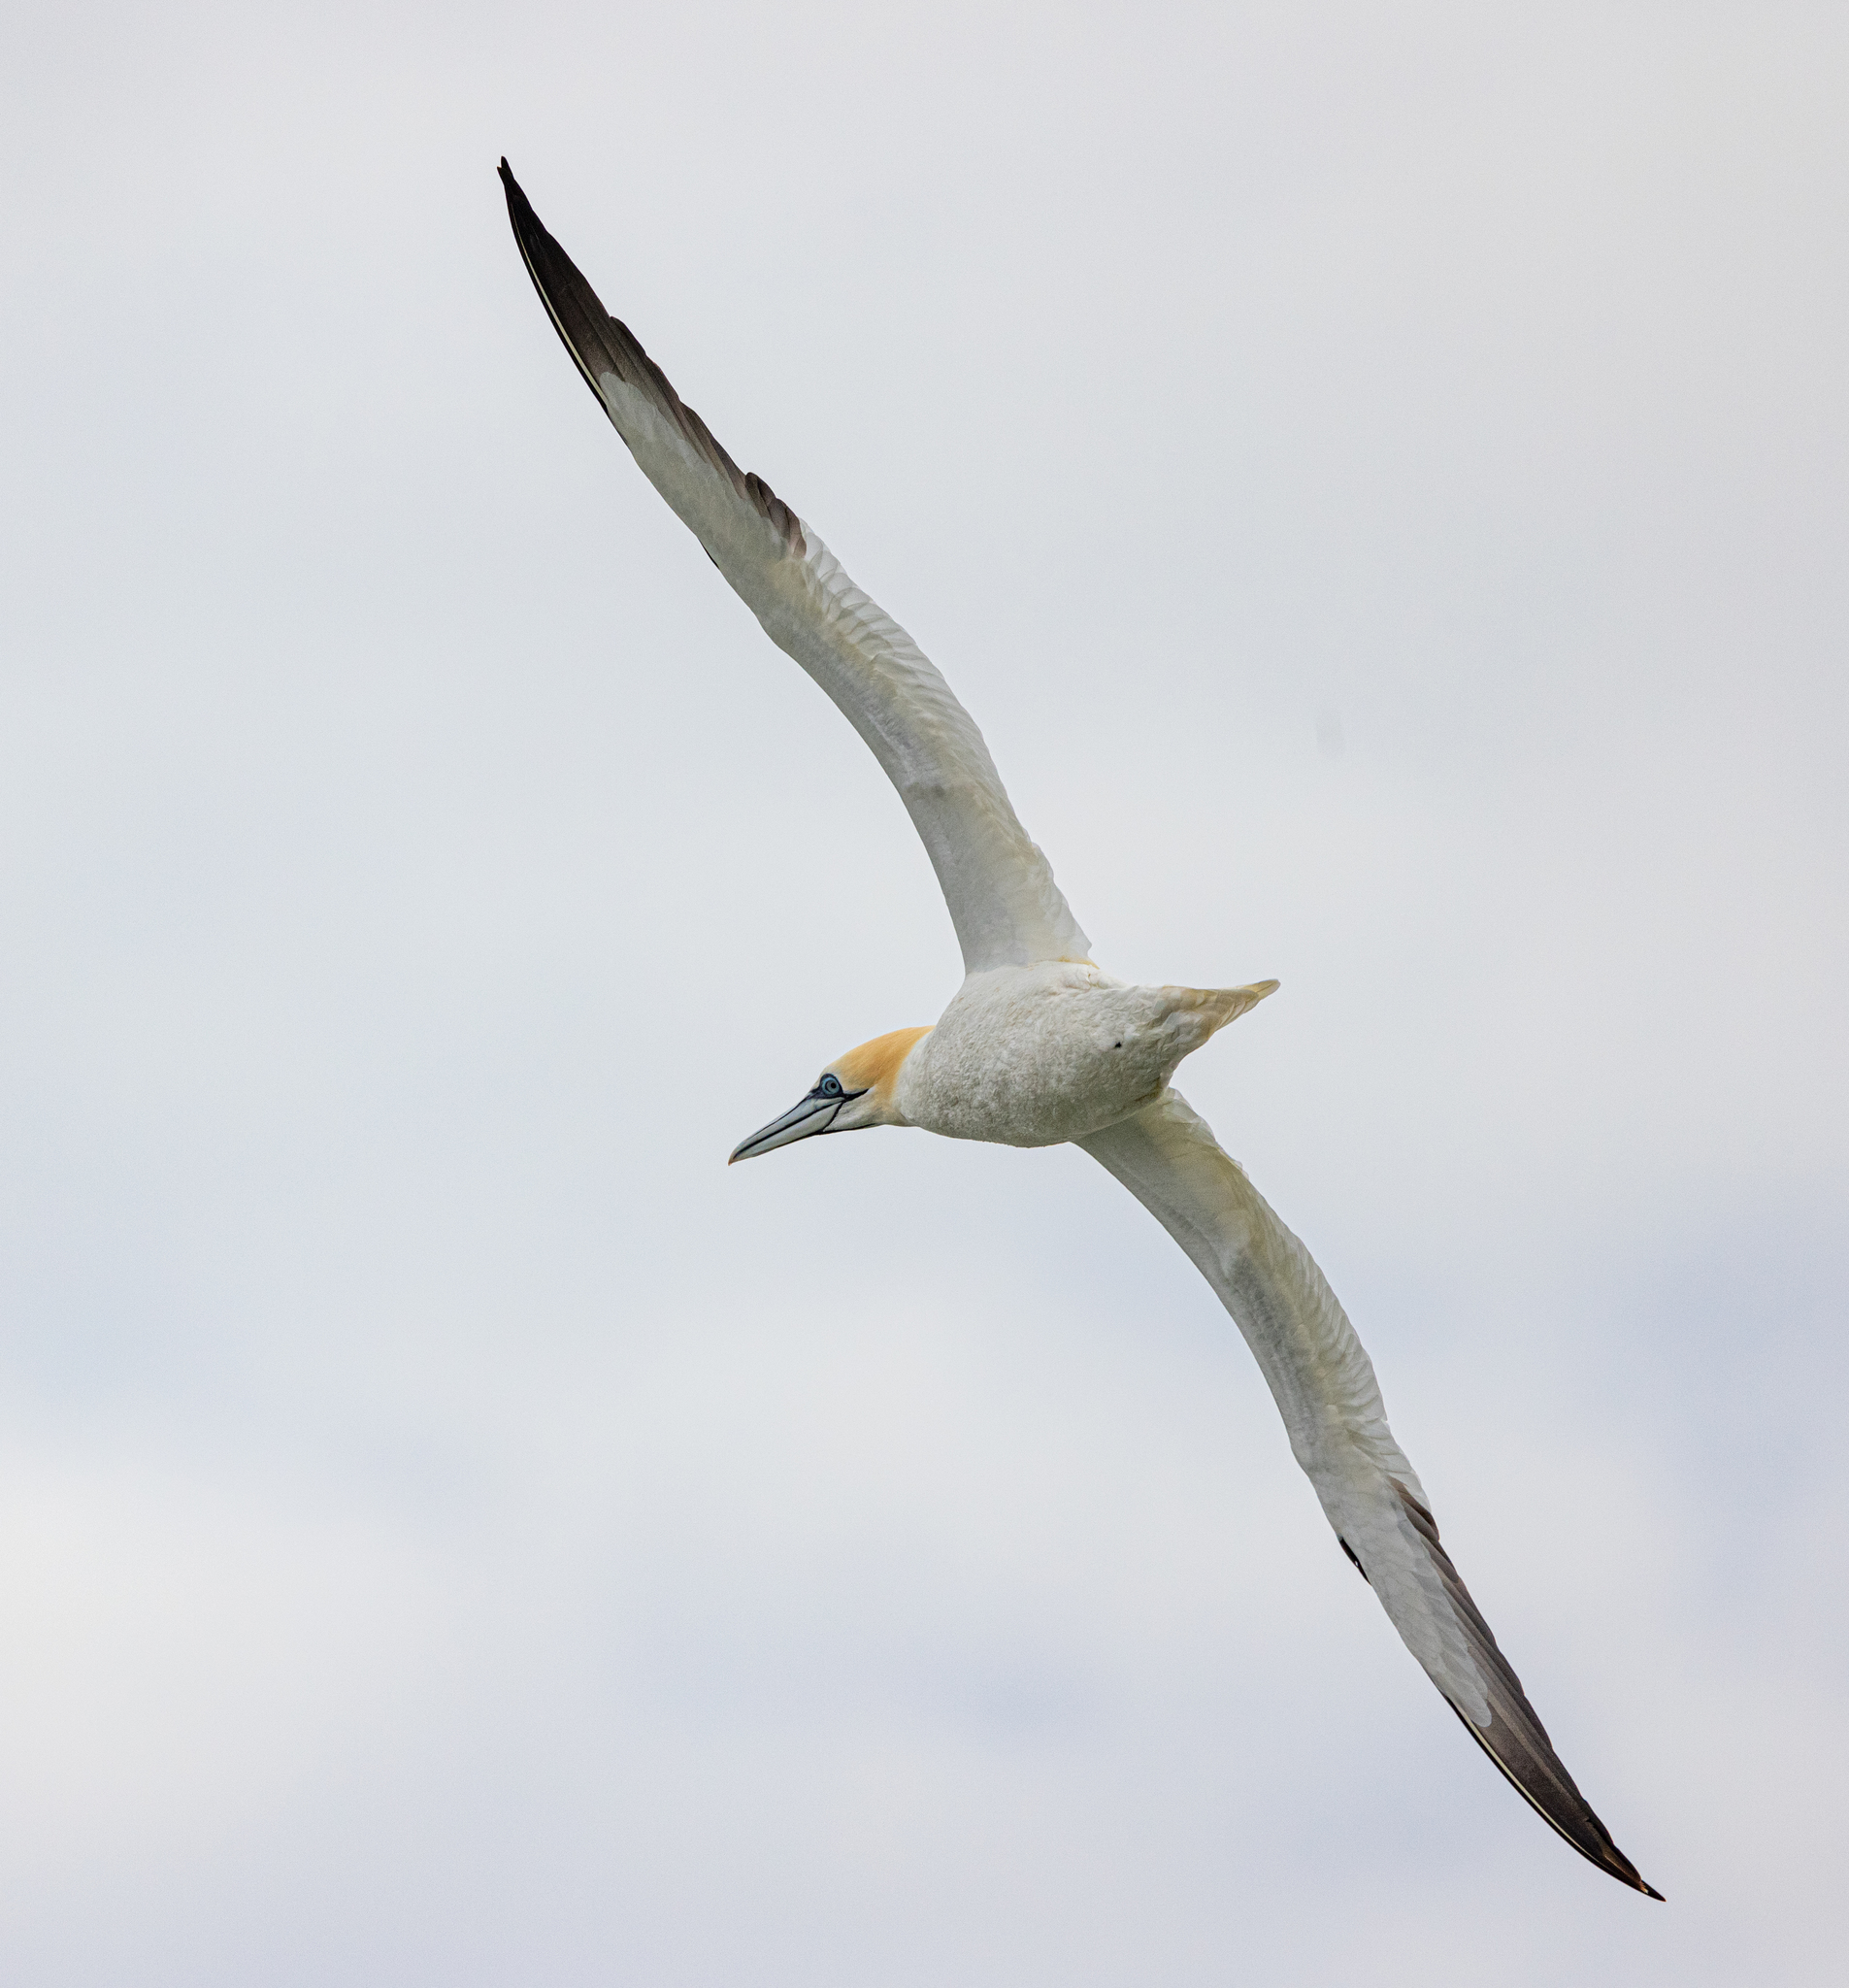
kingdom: Animalia
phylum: Chordata
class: Aves
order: Suliformes
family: Sulidae
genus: Morus
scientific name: Morus bassanus
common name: Northern gannet
